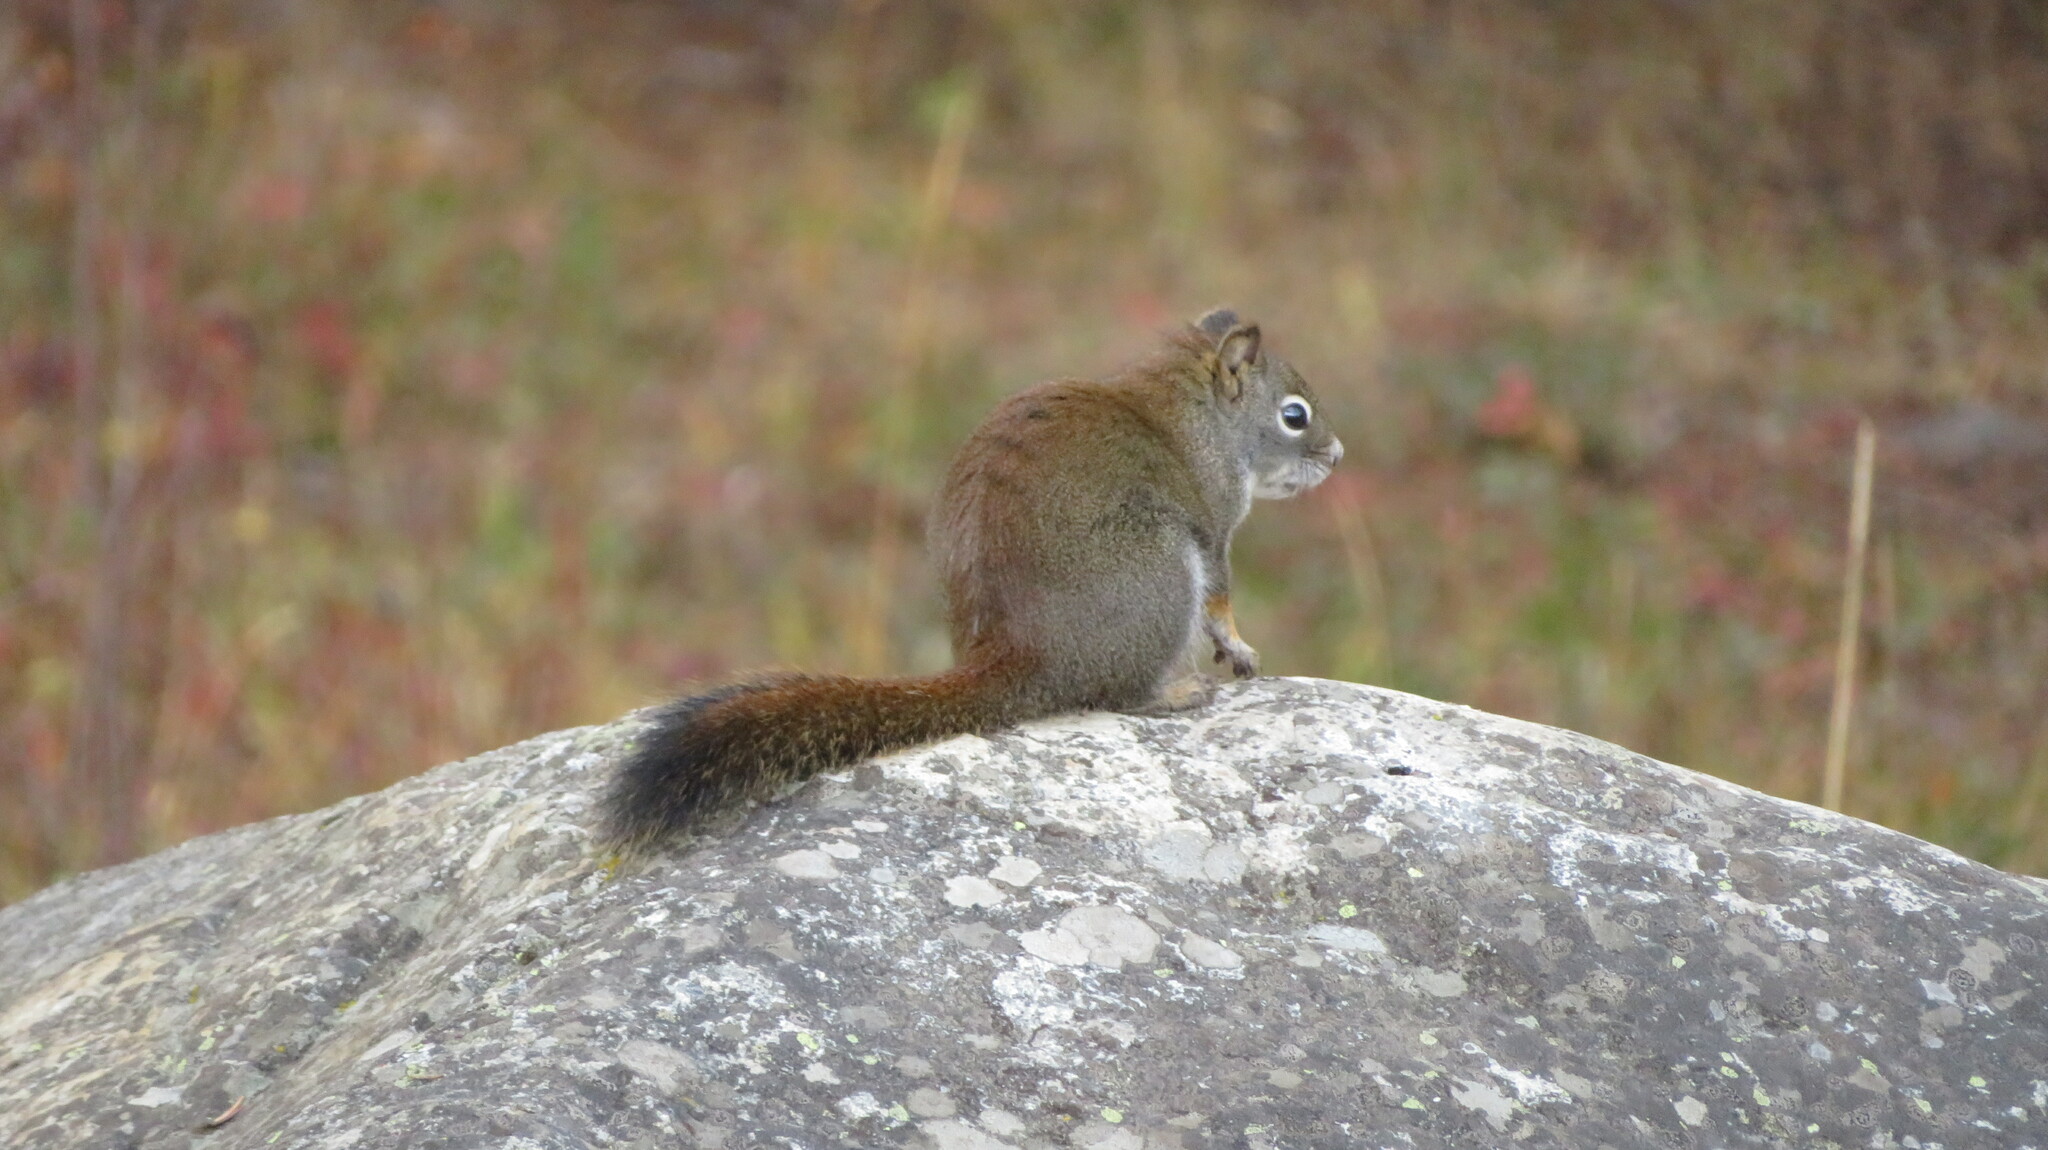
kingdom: Animalia
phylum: Chordata
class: Mammalia
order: Rodentia
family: Sciuridae
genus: Tamiasciurus
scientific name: Tamiasciurus hudsonicus
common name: Red squirrel
